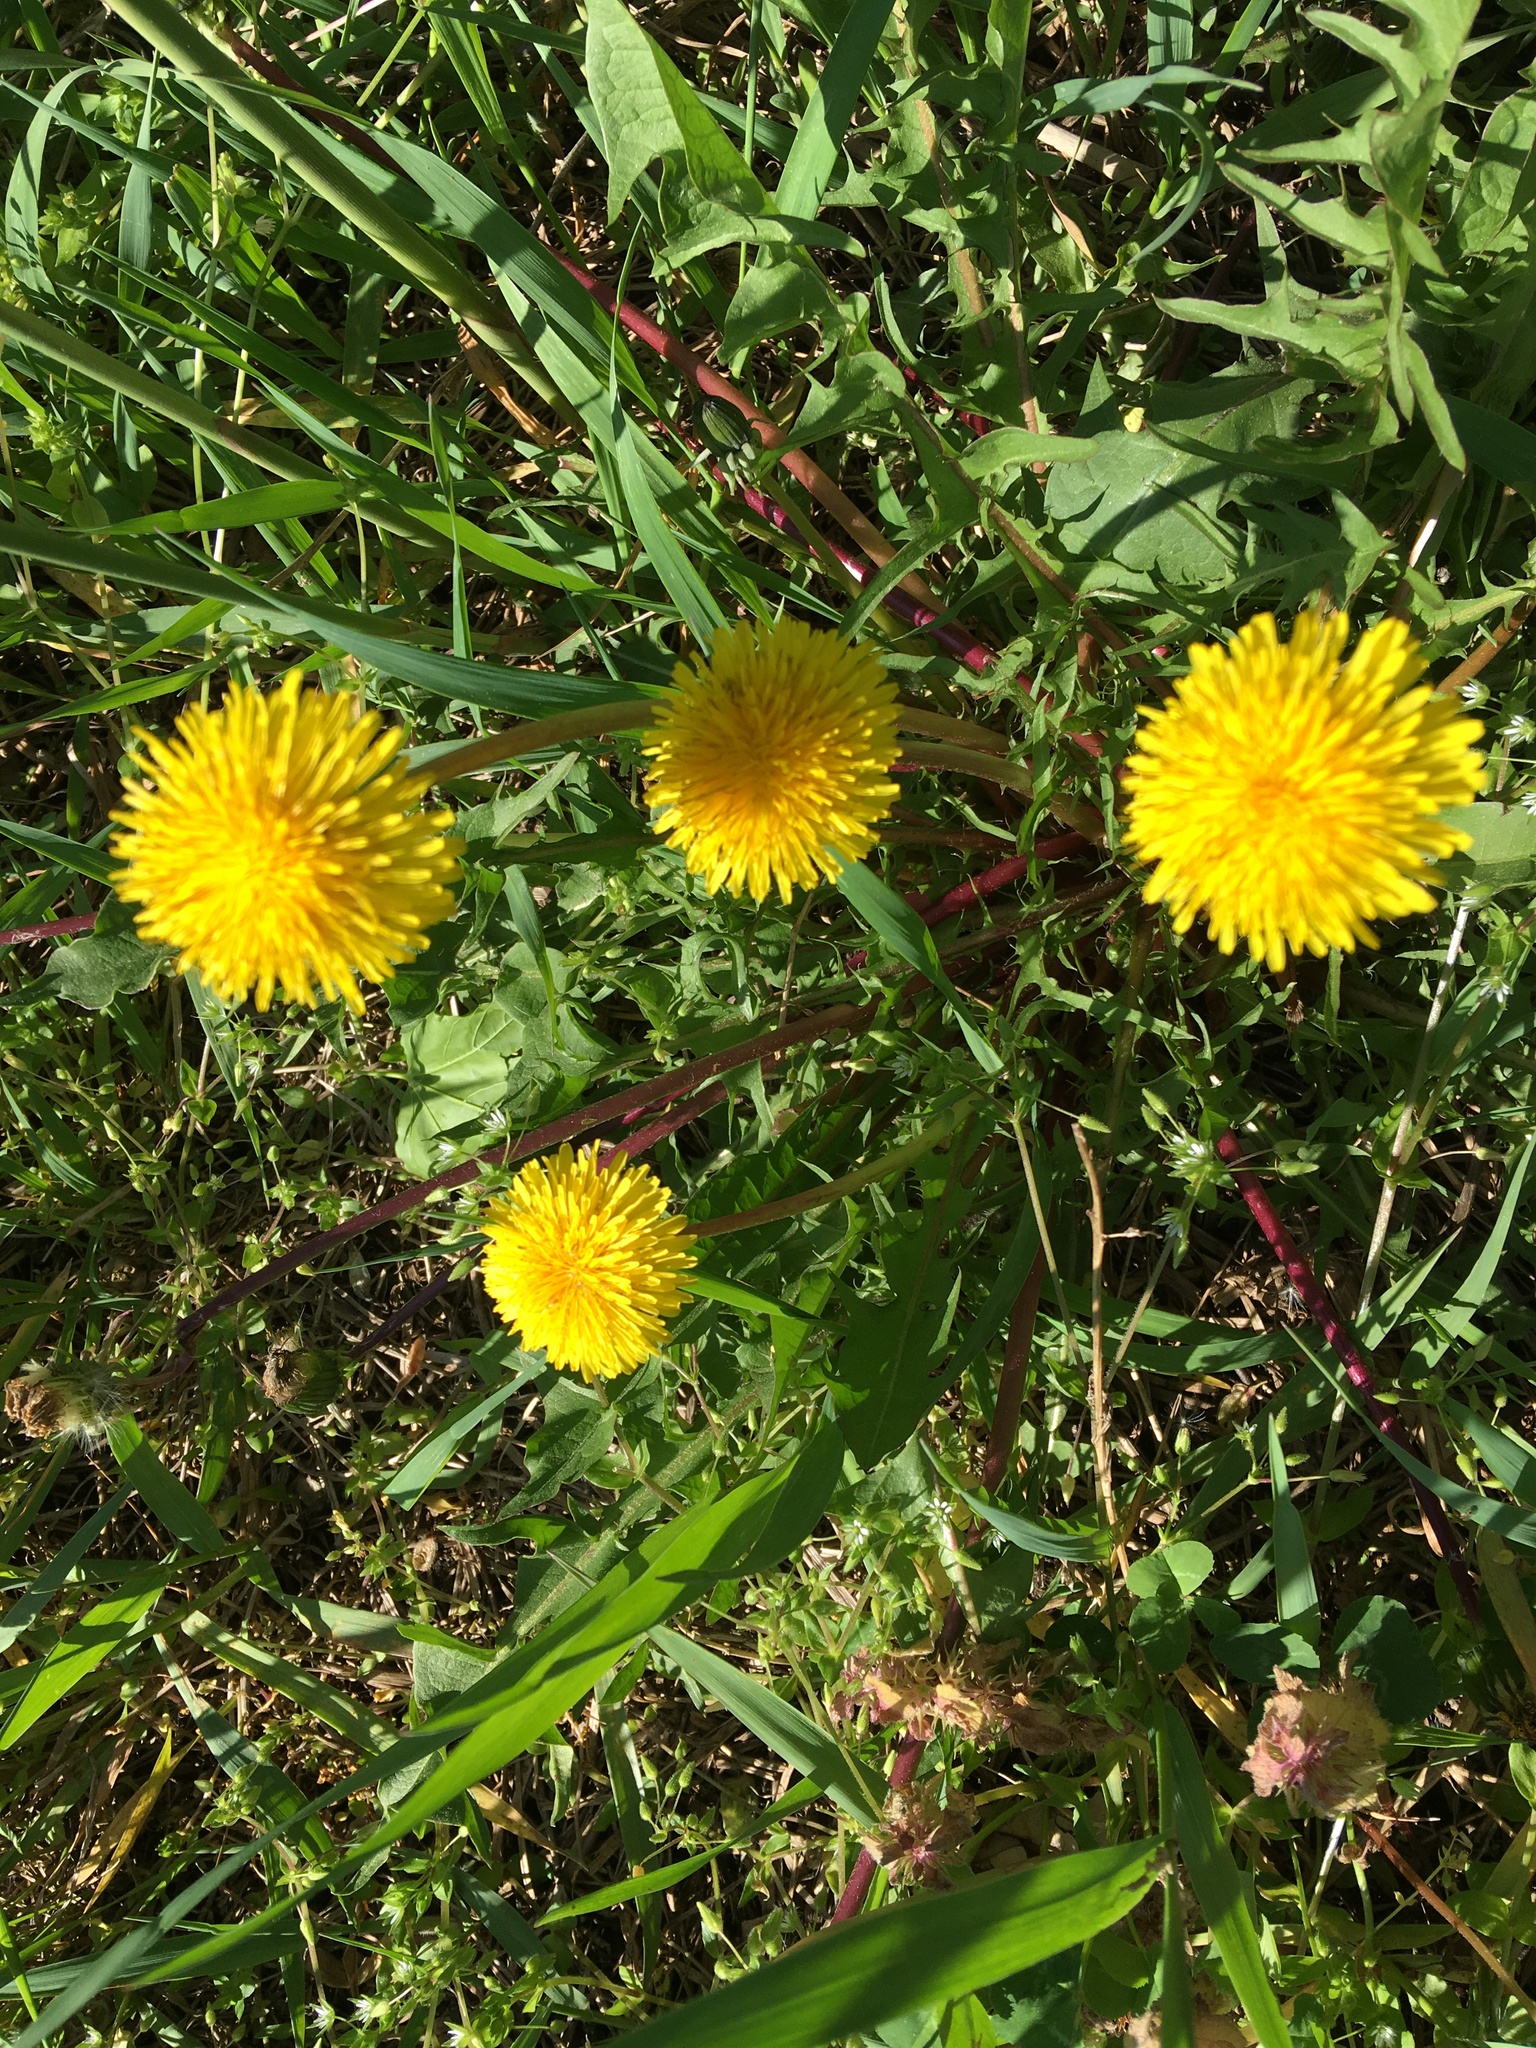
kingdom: Plantae
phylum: Tracheophyta
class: Magnoliopsida
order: Asterales
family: Asteraceae
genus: Taraxacum
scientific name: Taraxacum
